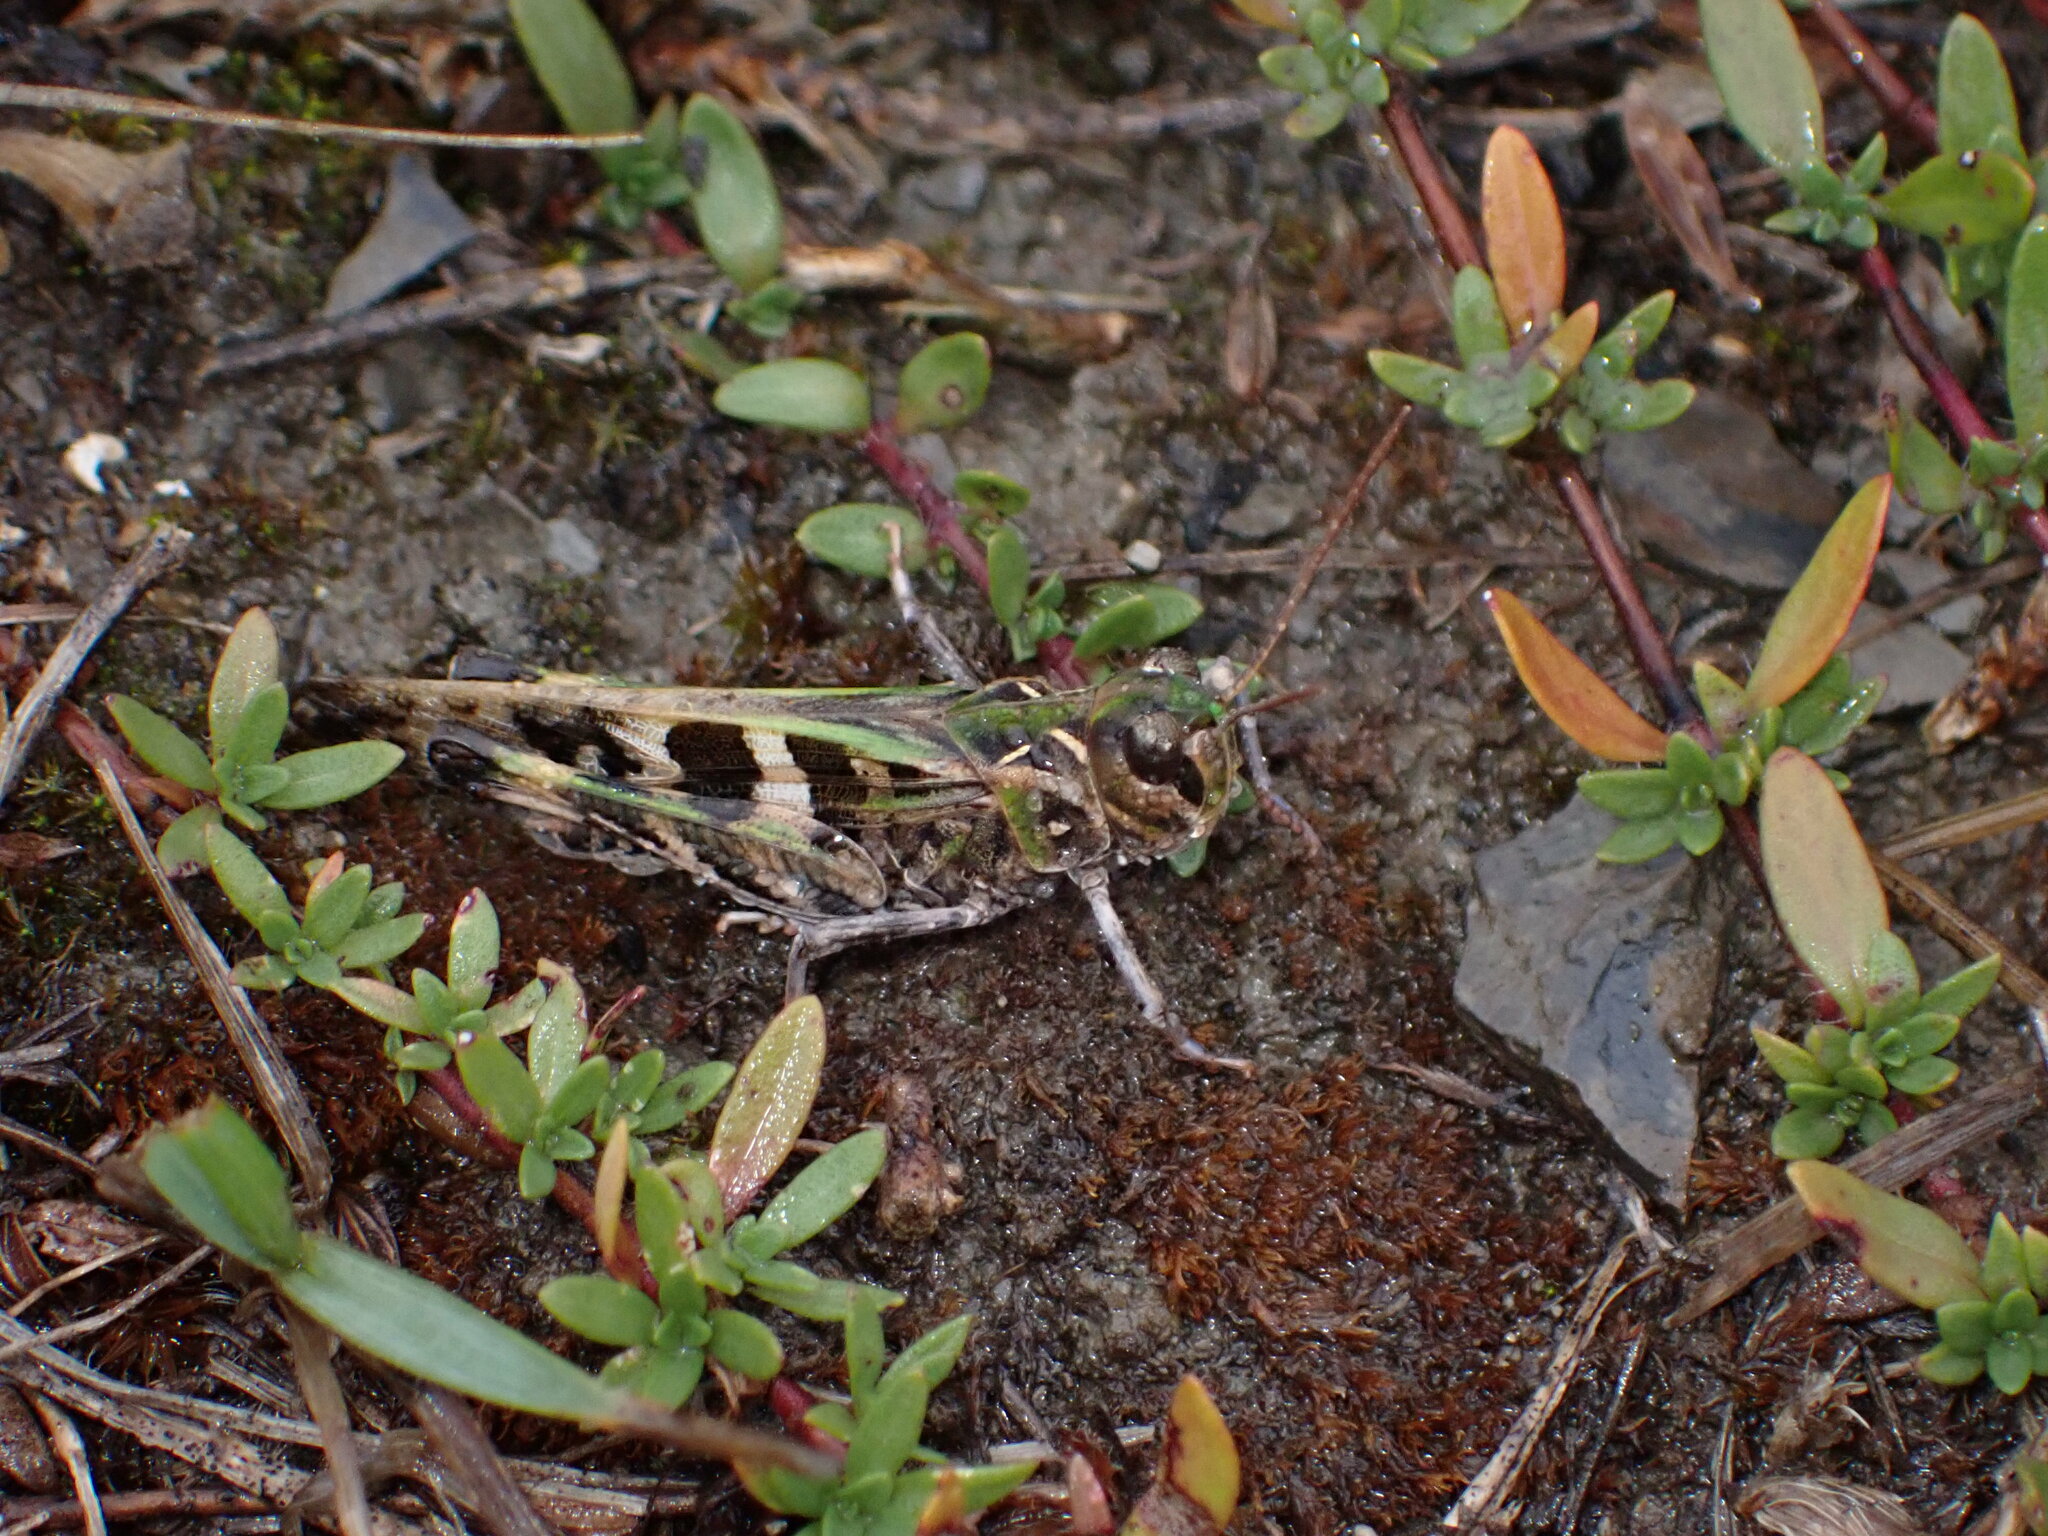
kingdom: Animalia
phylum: Arthropoda
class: Insecta
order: Orthoptera
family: Acrididae
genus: Oedaleus
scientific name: Oedaleus decorus
